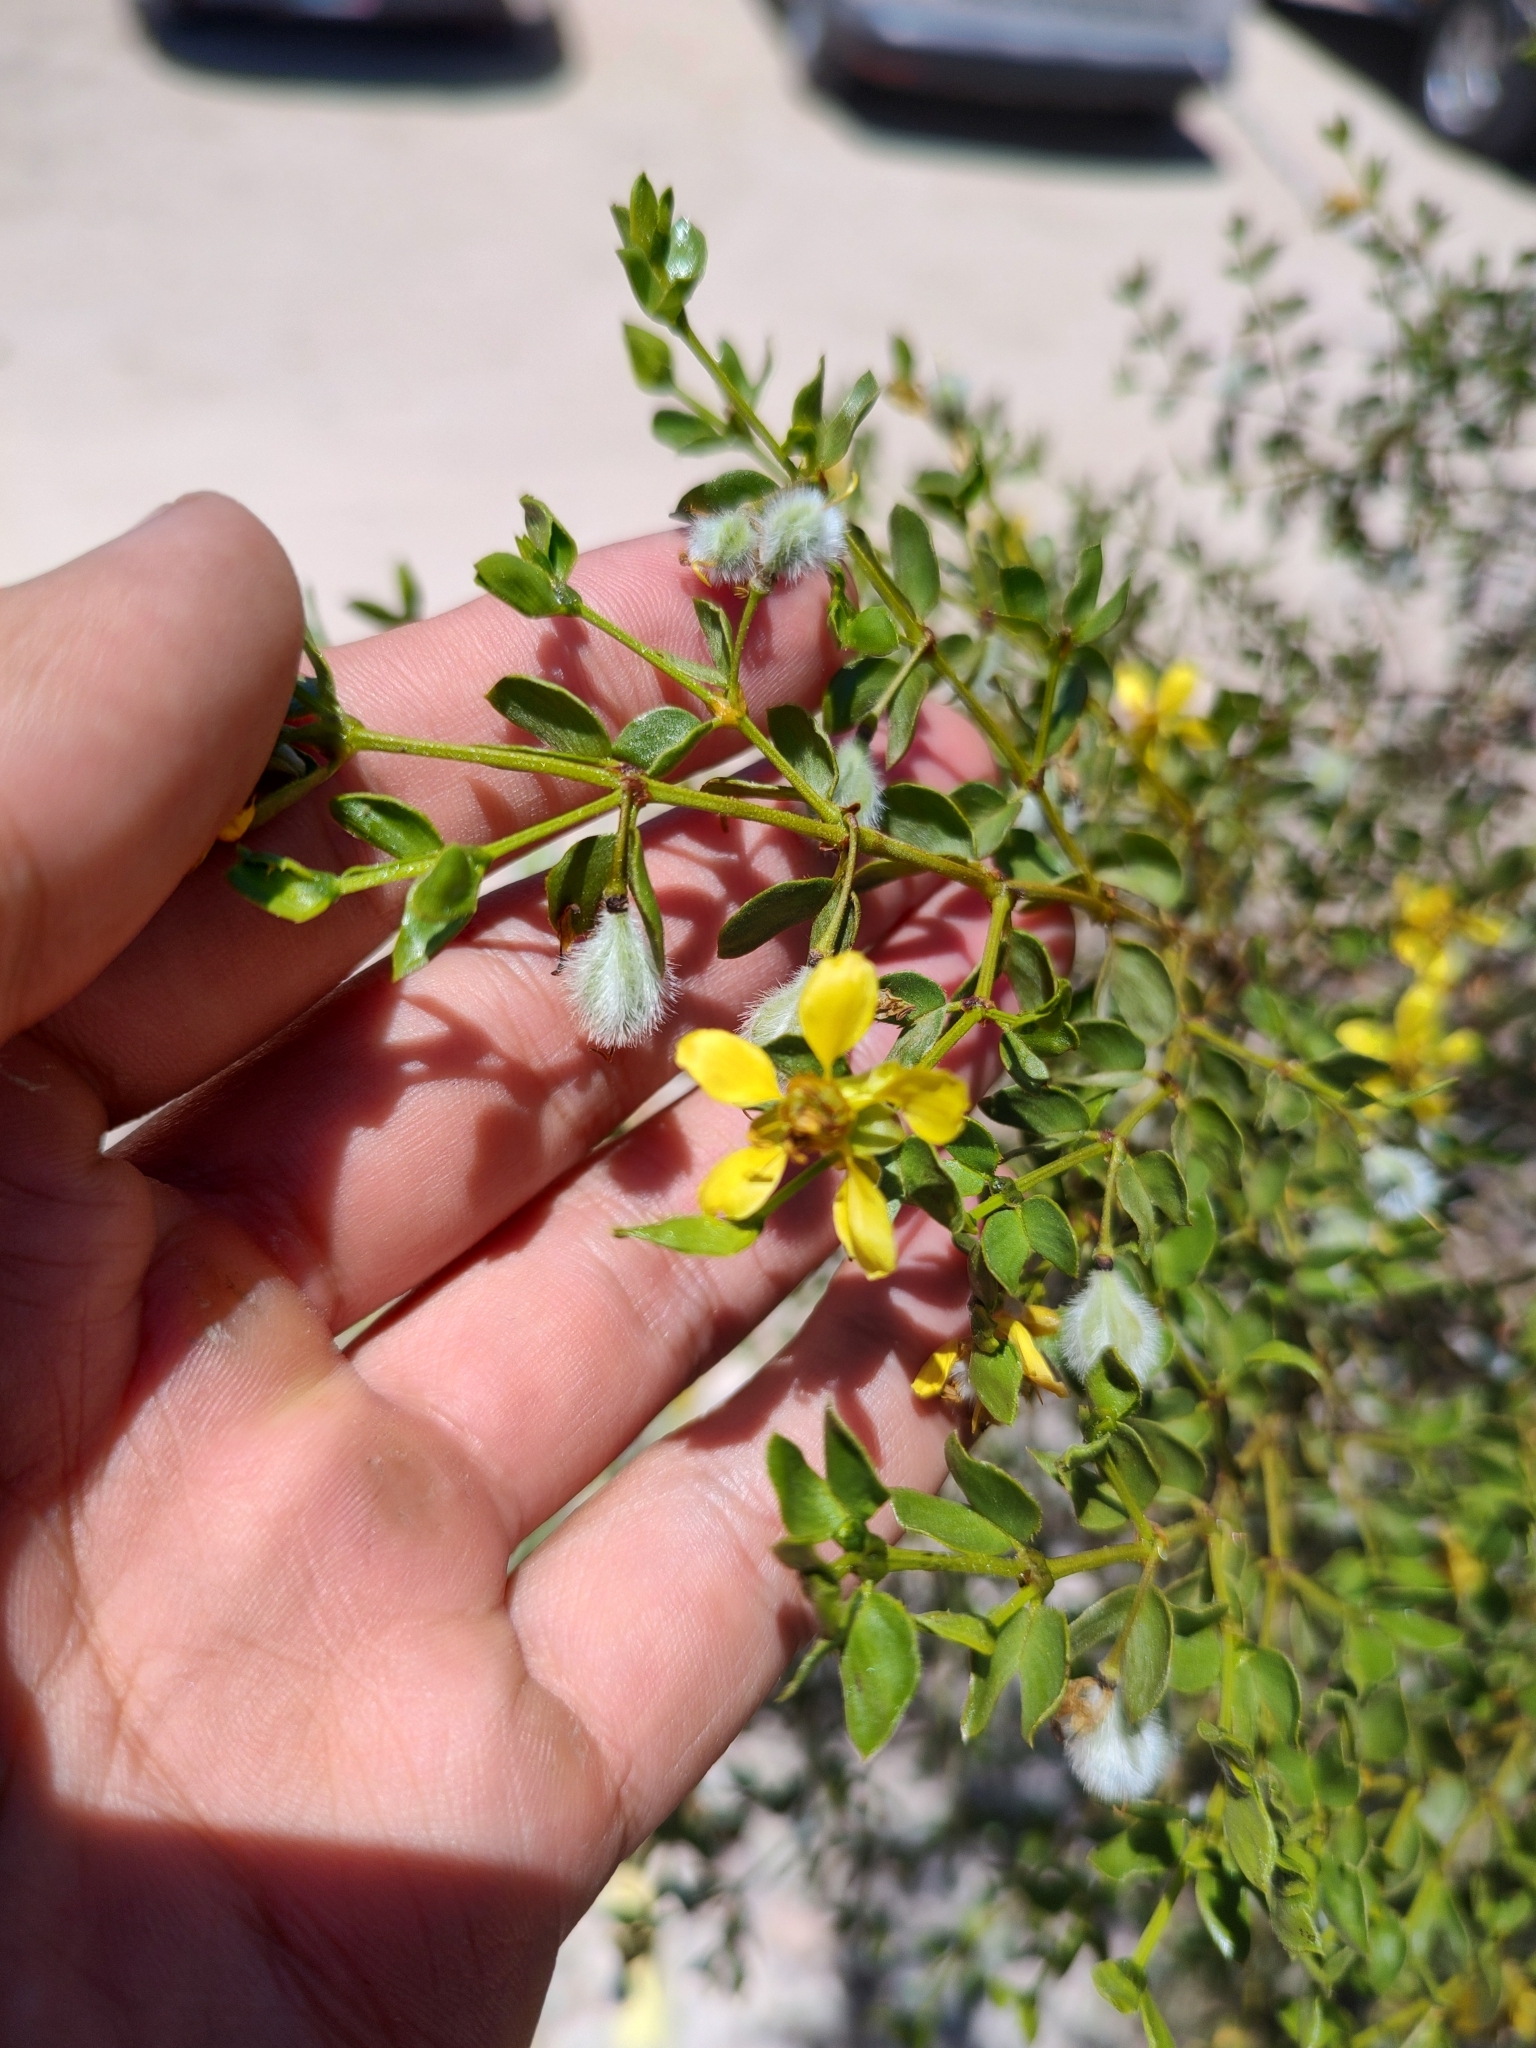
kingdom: Plantae
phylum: Tracheophyta
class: Magnoliopsida
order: Zygophyllales
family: Zygophyllaceae
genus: Larrea
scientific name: Larrea tridentata
